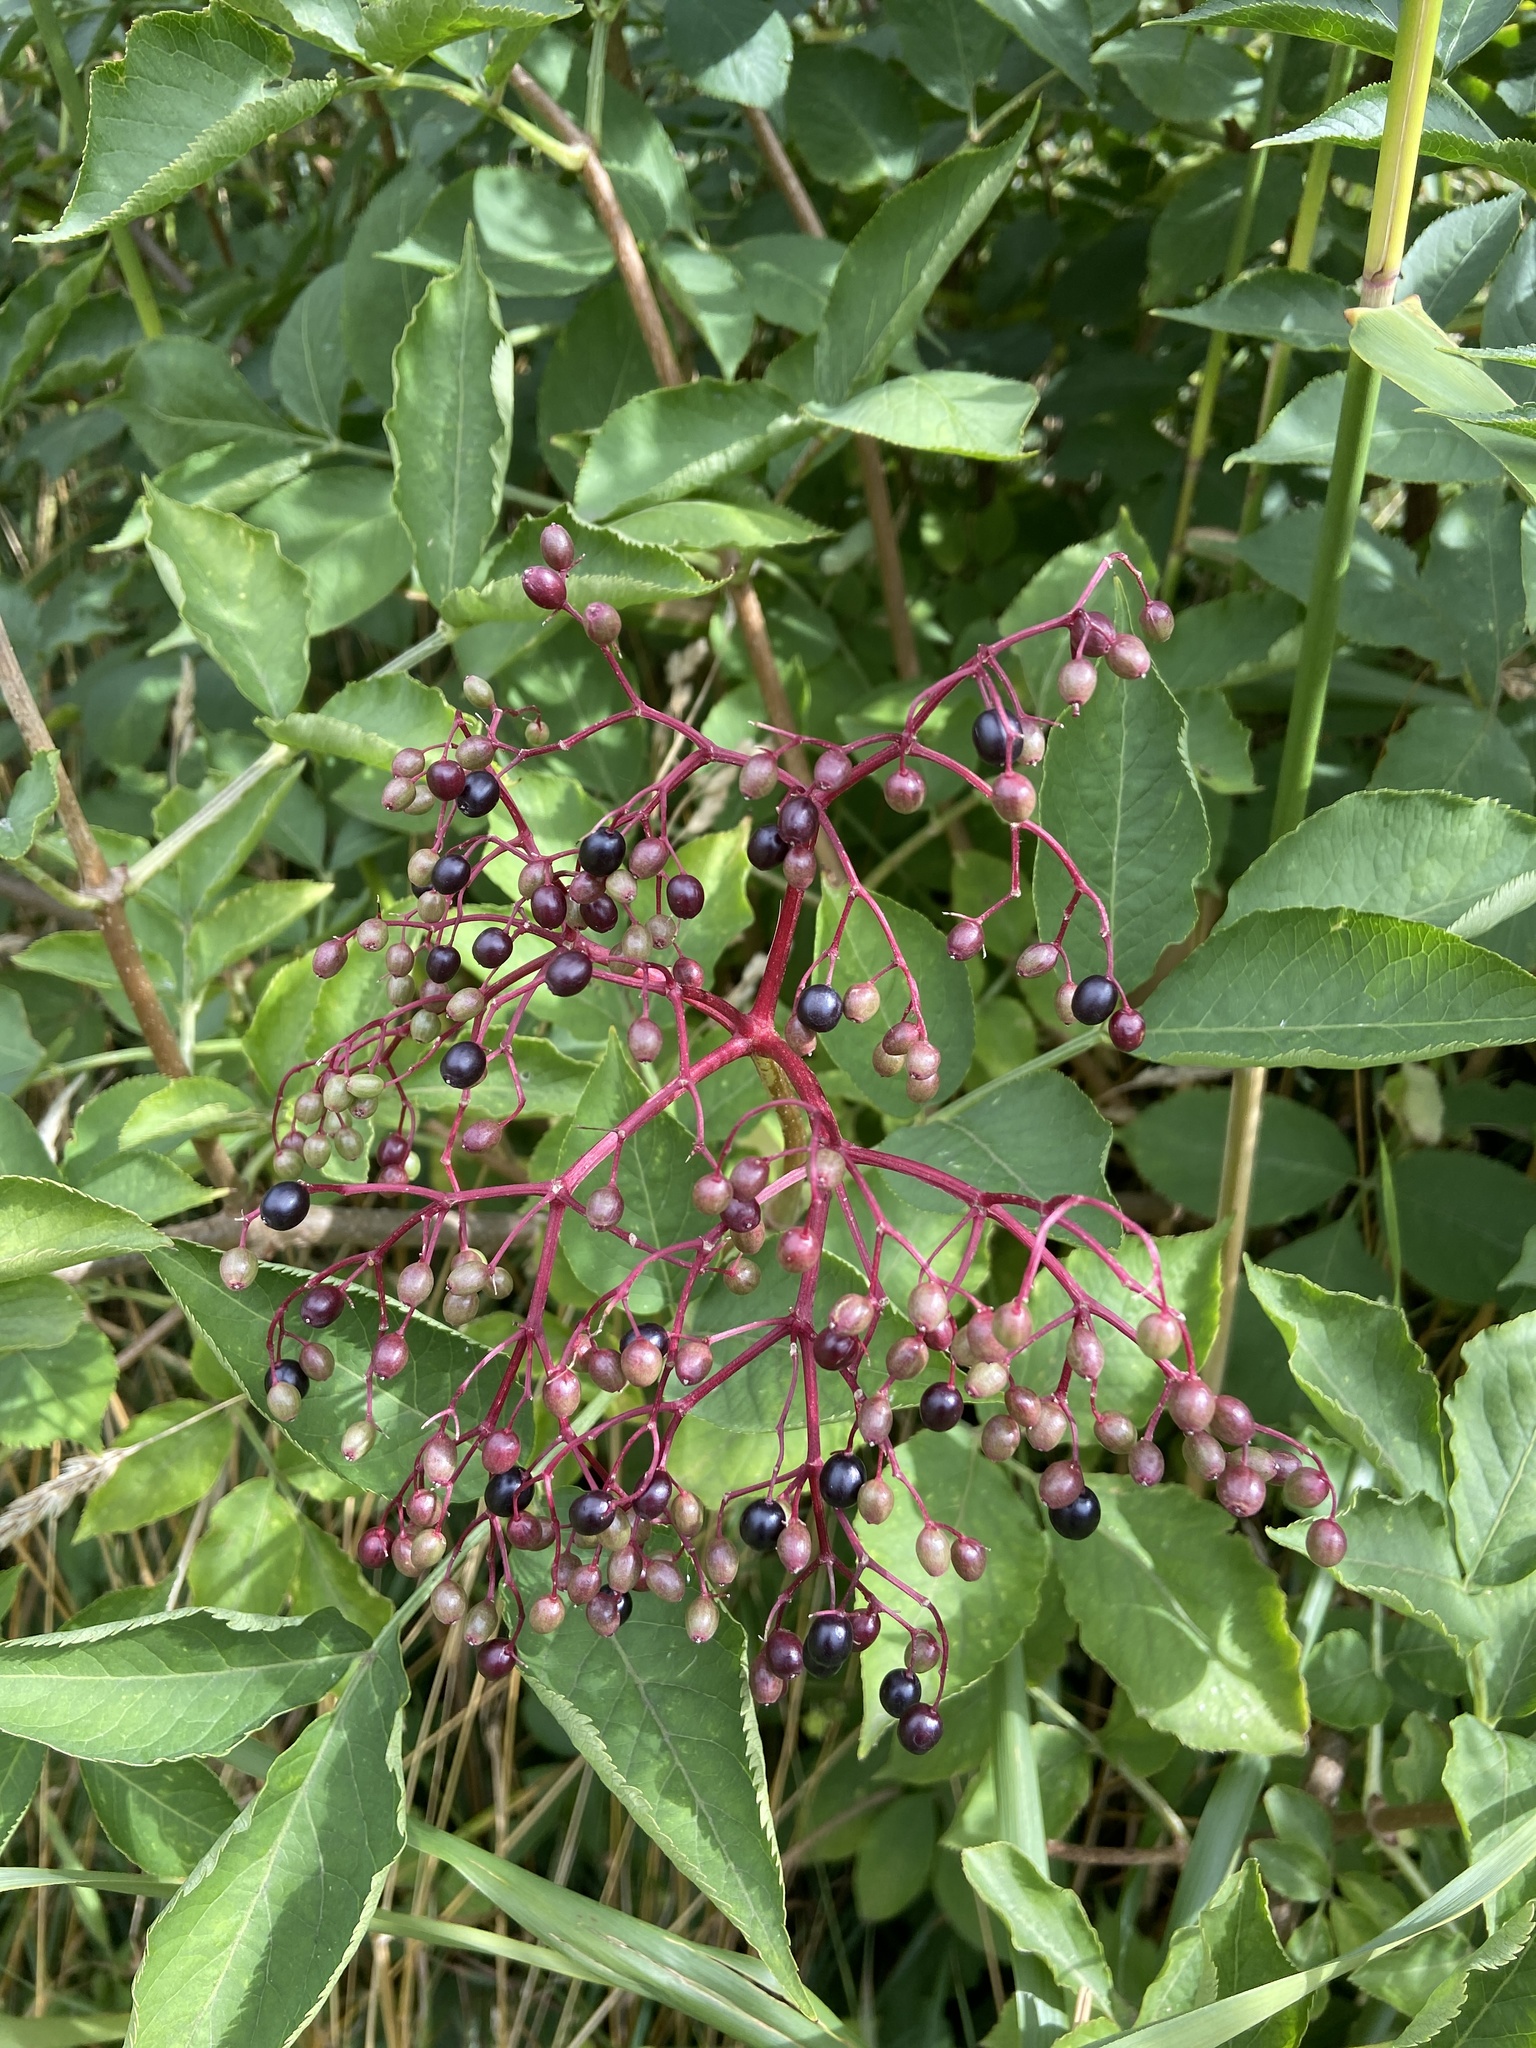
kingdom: Plantae
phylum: Tracheophyta
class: Magnoliopsida
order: Dipsacales
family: Viburnaceae
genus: Sambucus
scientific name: Sambucus nigra
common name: Elder
